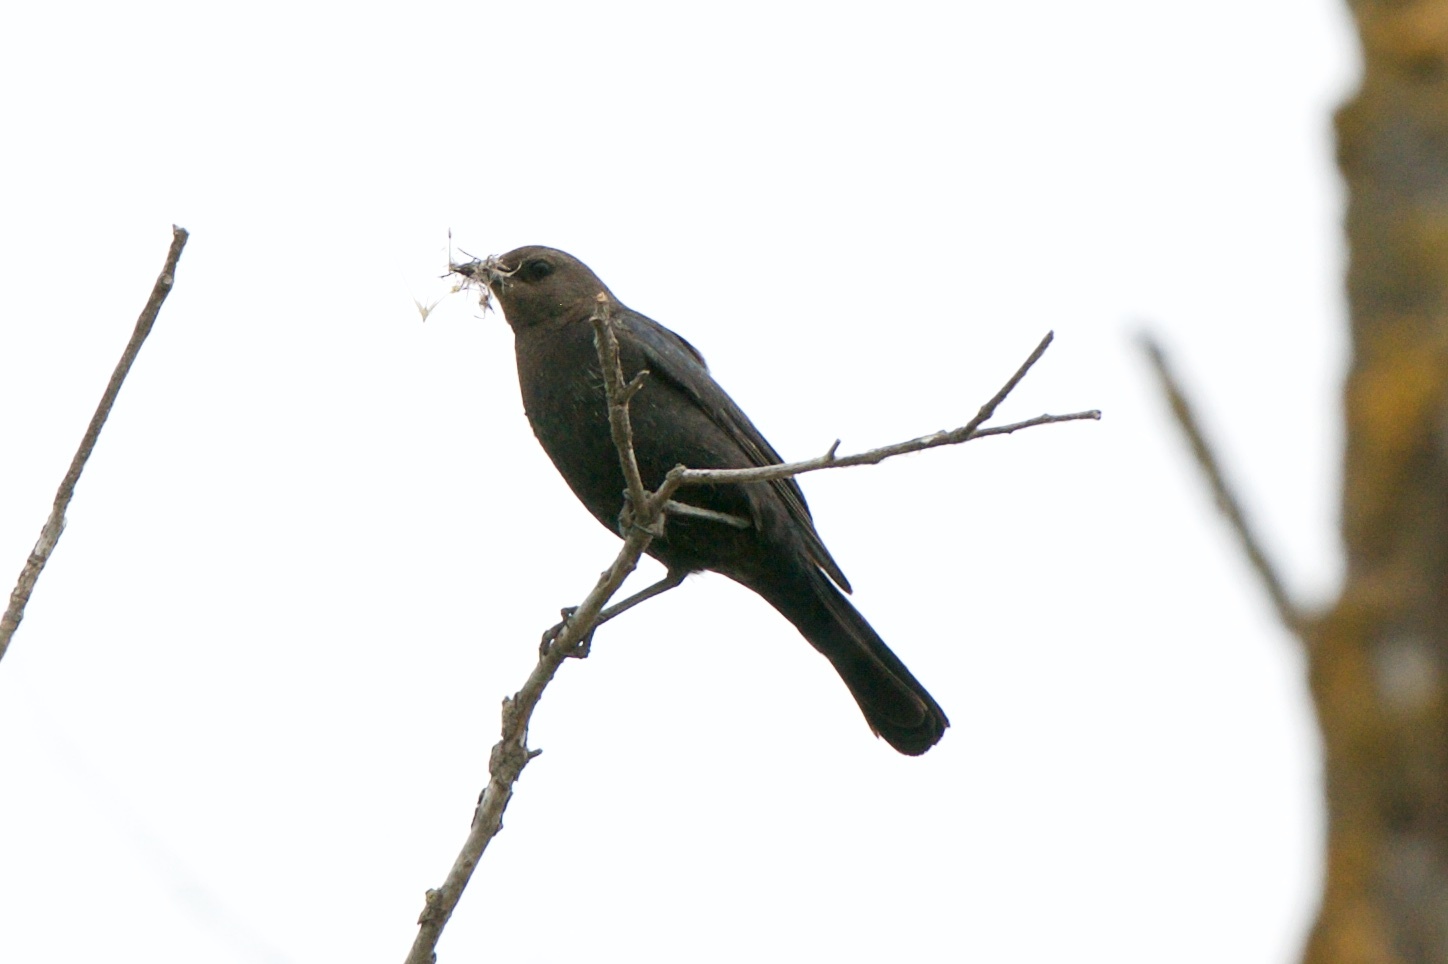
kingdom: Animalia
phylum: Chordata
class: Aves
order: Passeriformes
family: Icteridae
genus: Euphagus
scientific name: Euphagus cyanocephalus
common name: Brewer's blackbird
